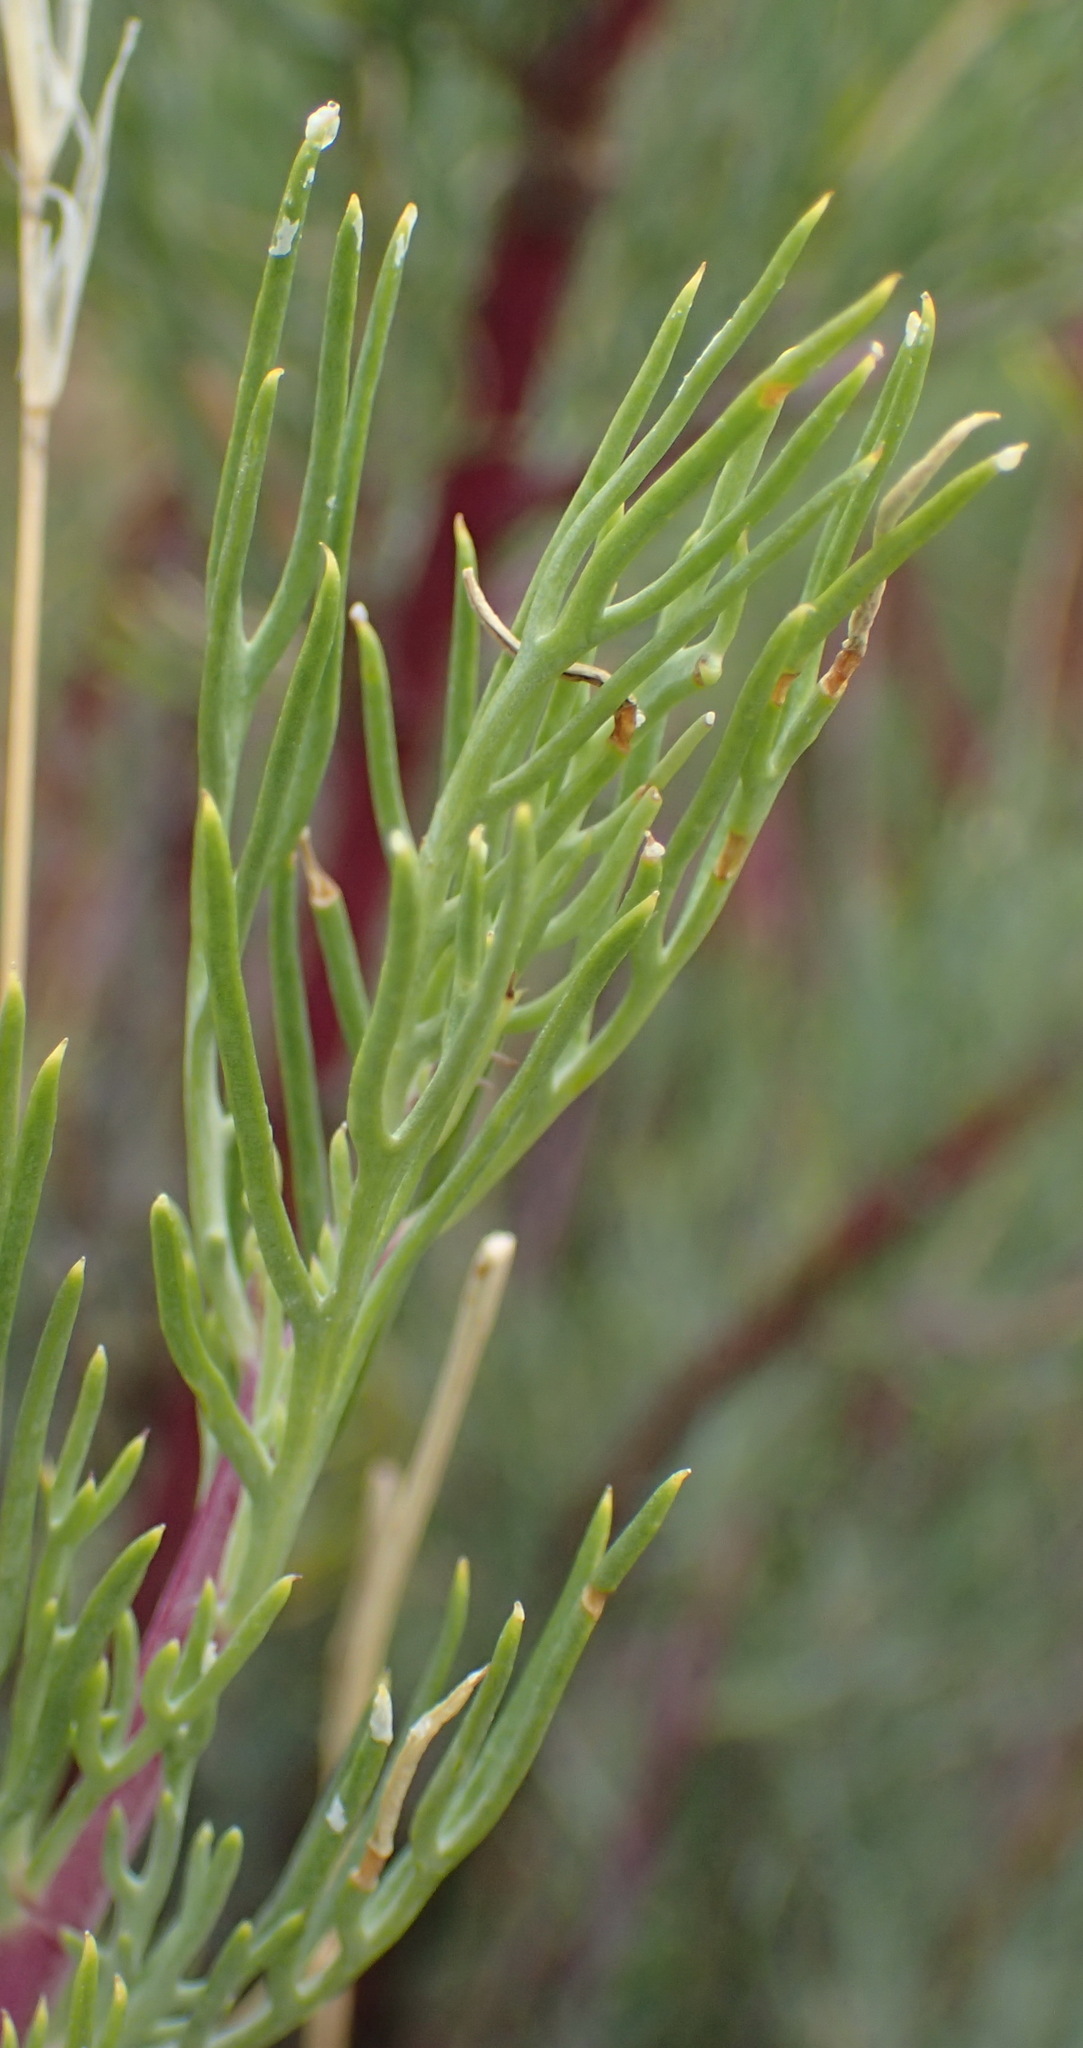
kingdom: Plantae
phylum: Tracheophyta
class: Magnoliopsida
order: Asterales
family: Asteraceae
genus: Othonna
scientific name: Othonna pavonia
